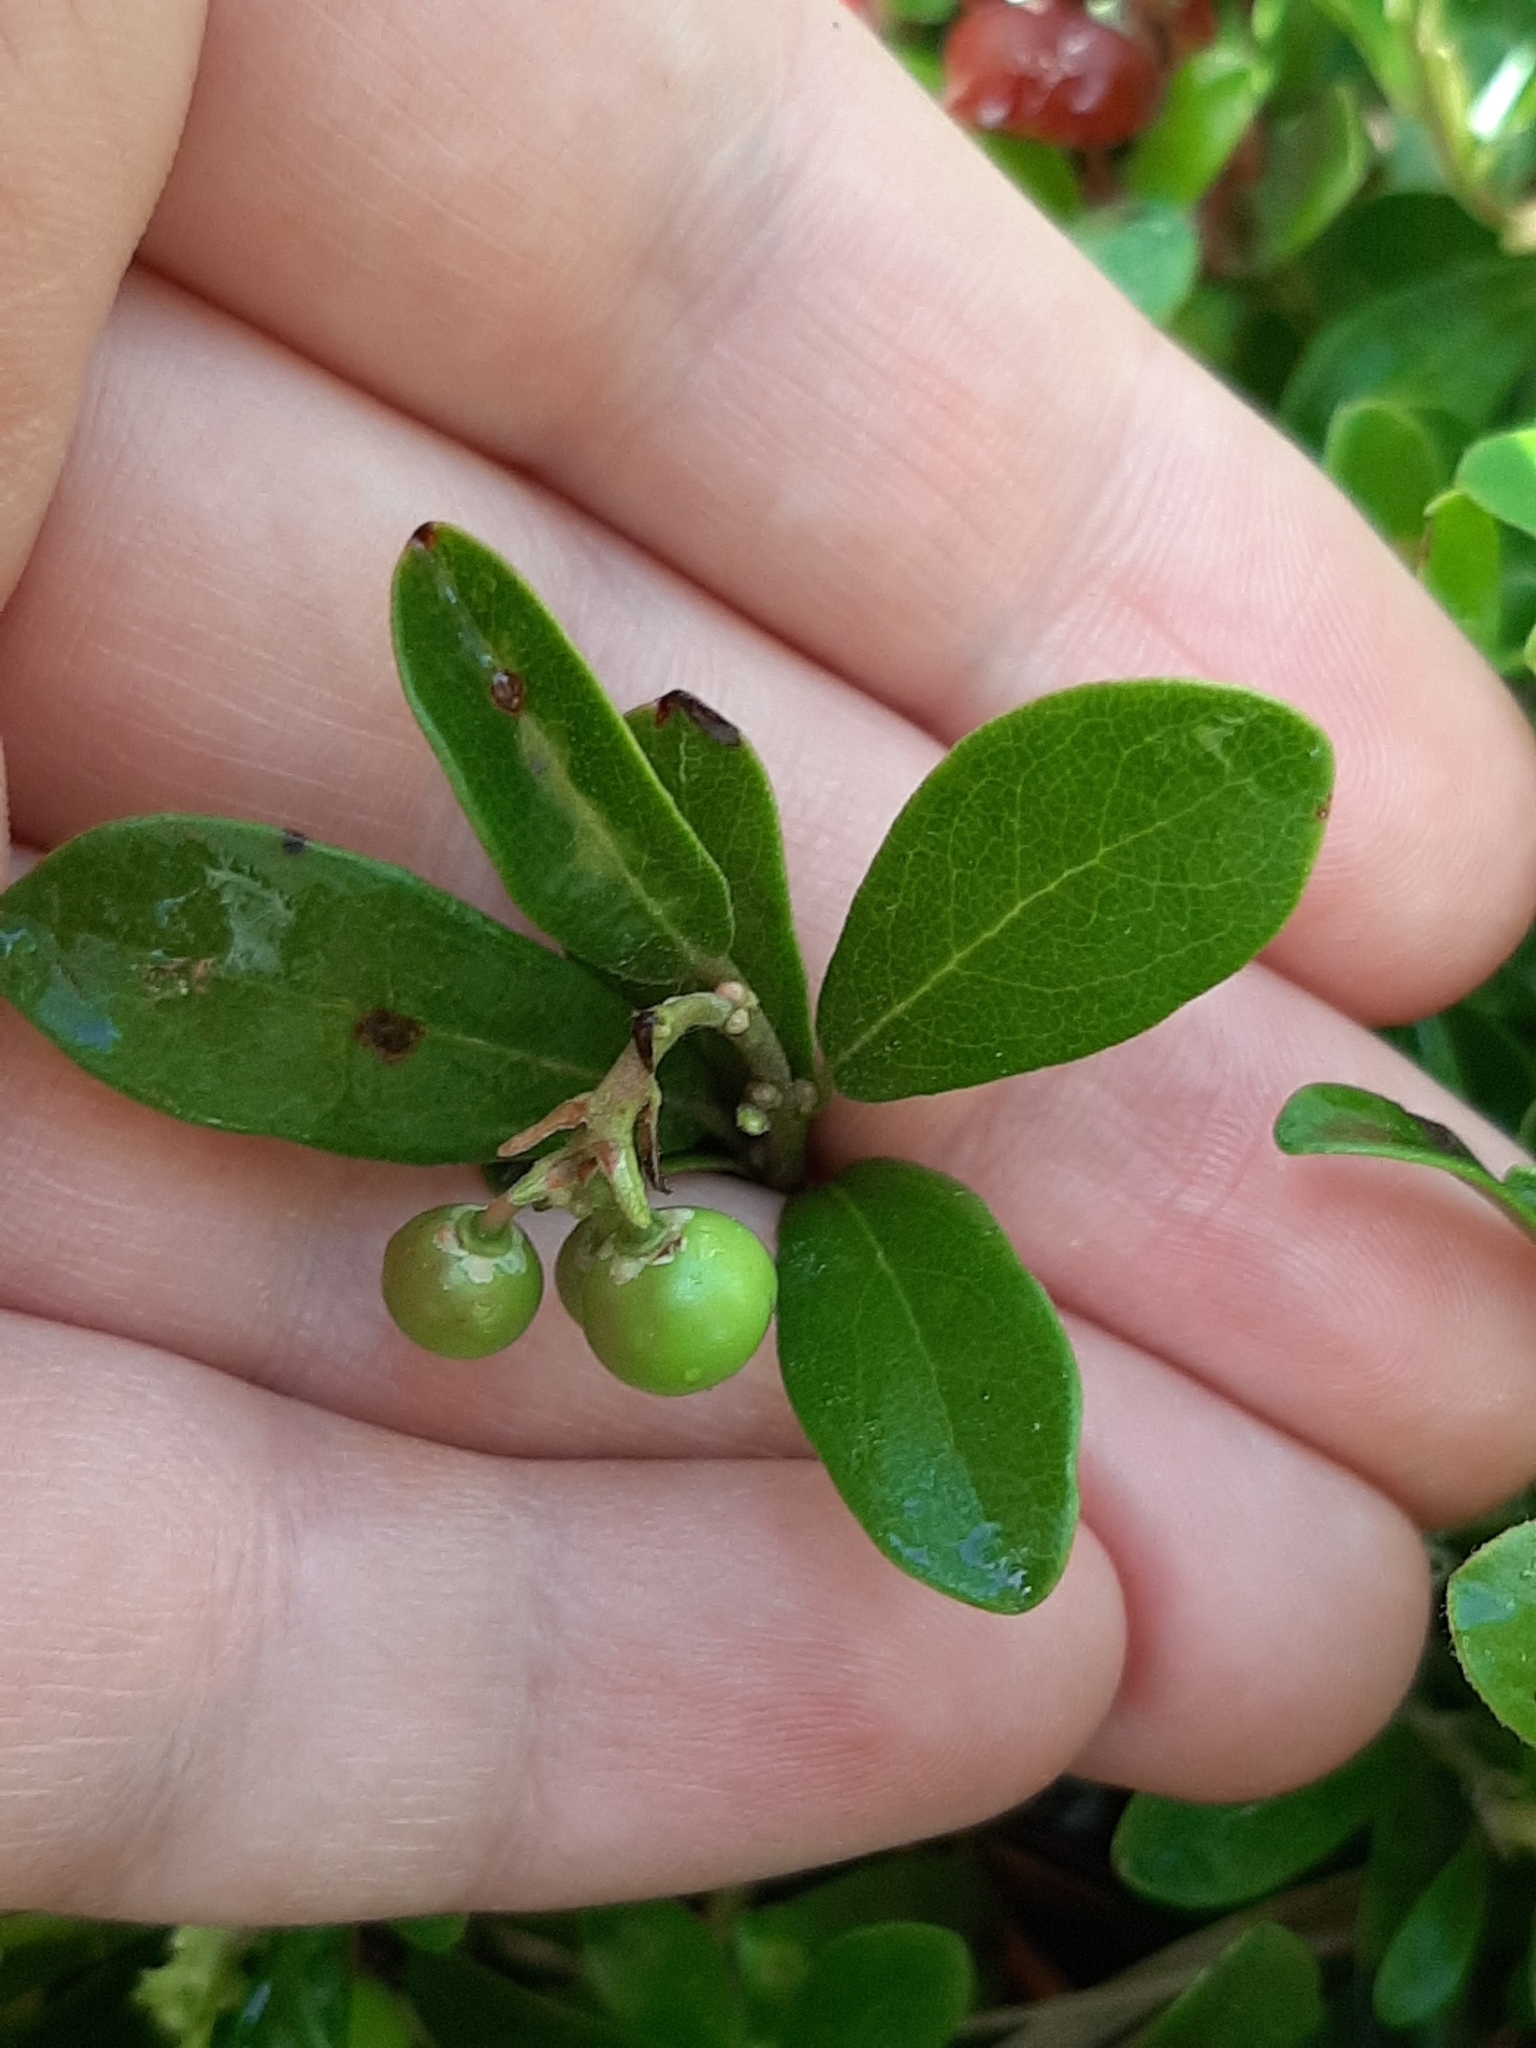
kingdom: Plantae
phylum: Tracheophyta
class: Magnoliopsida
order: Ericales
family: Ericaceae
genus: Arctostaphylos
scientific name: Arctostaphylos uva-ursi
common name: Bearberry
